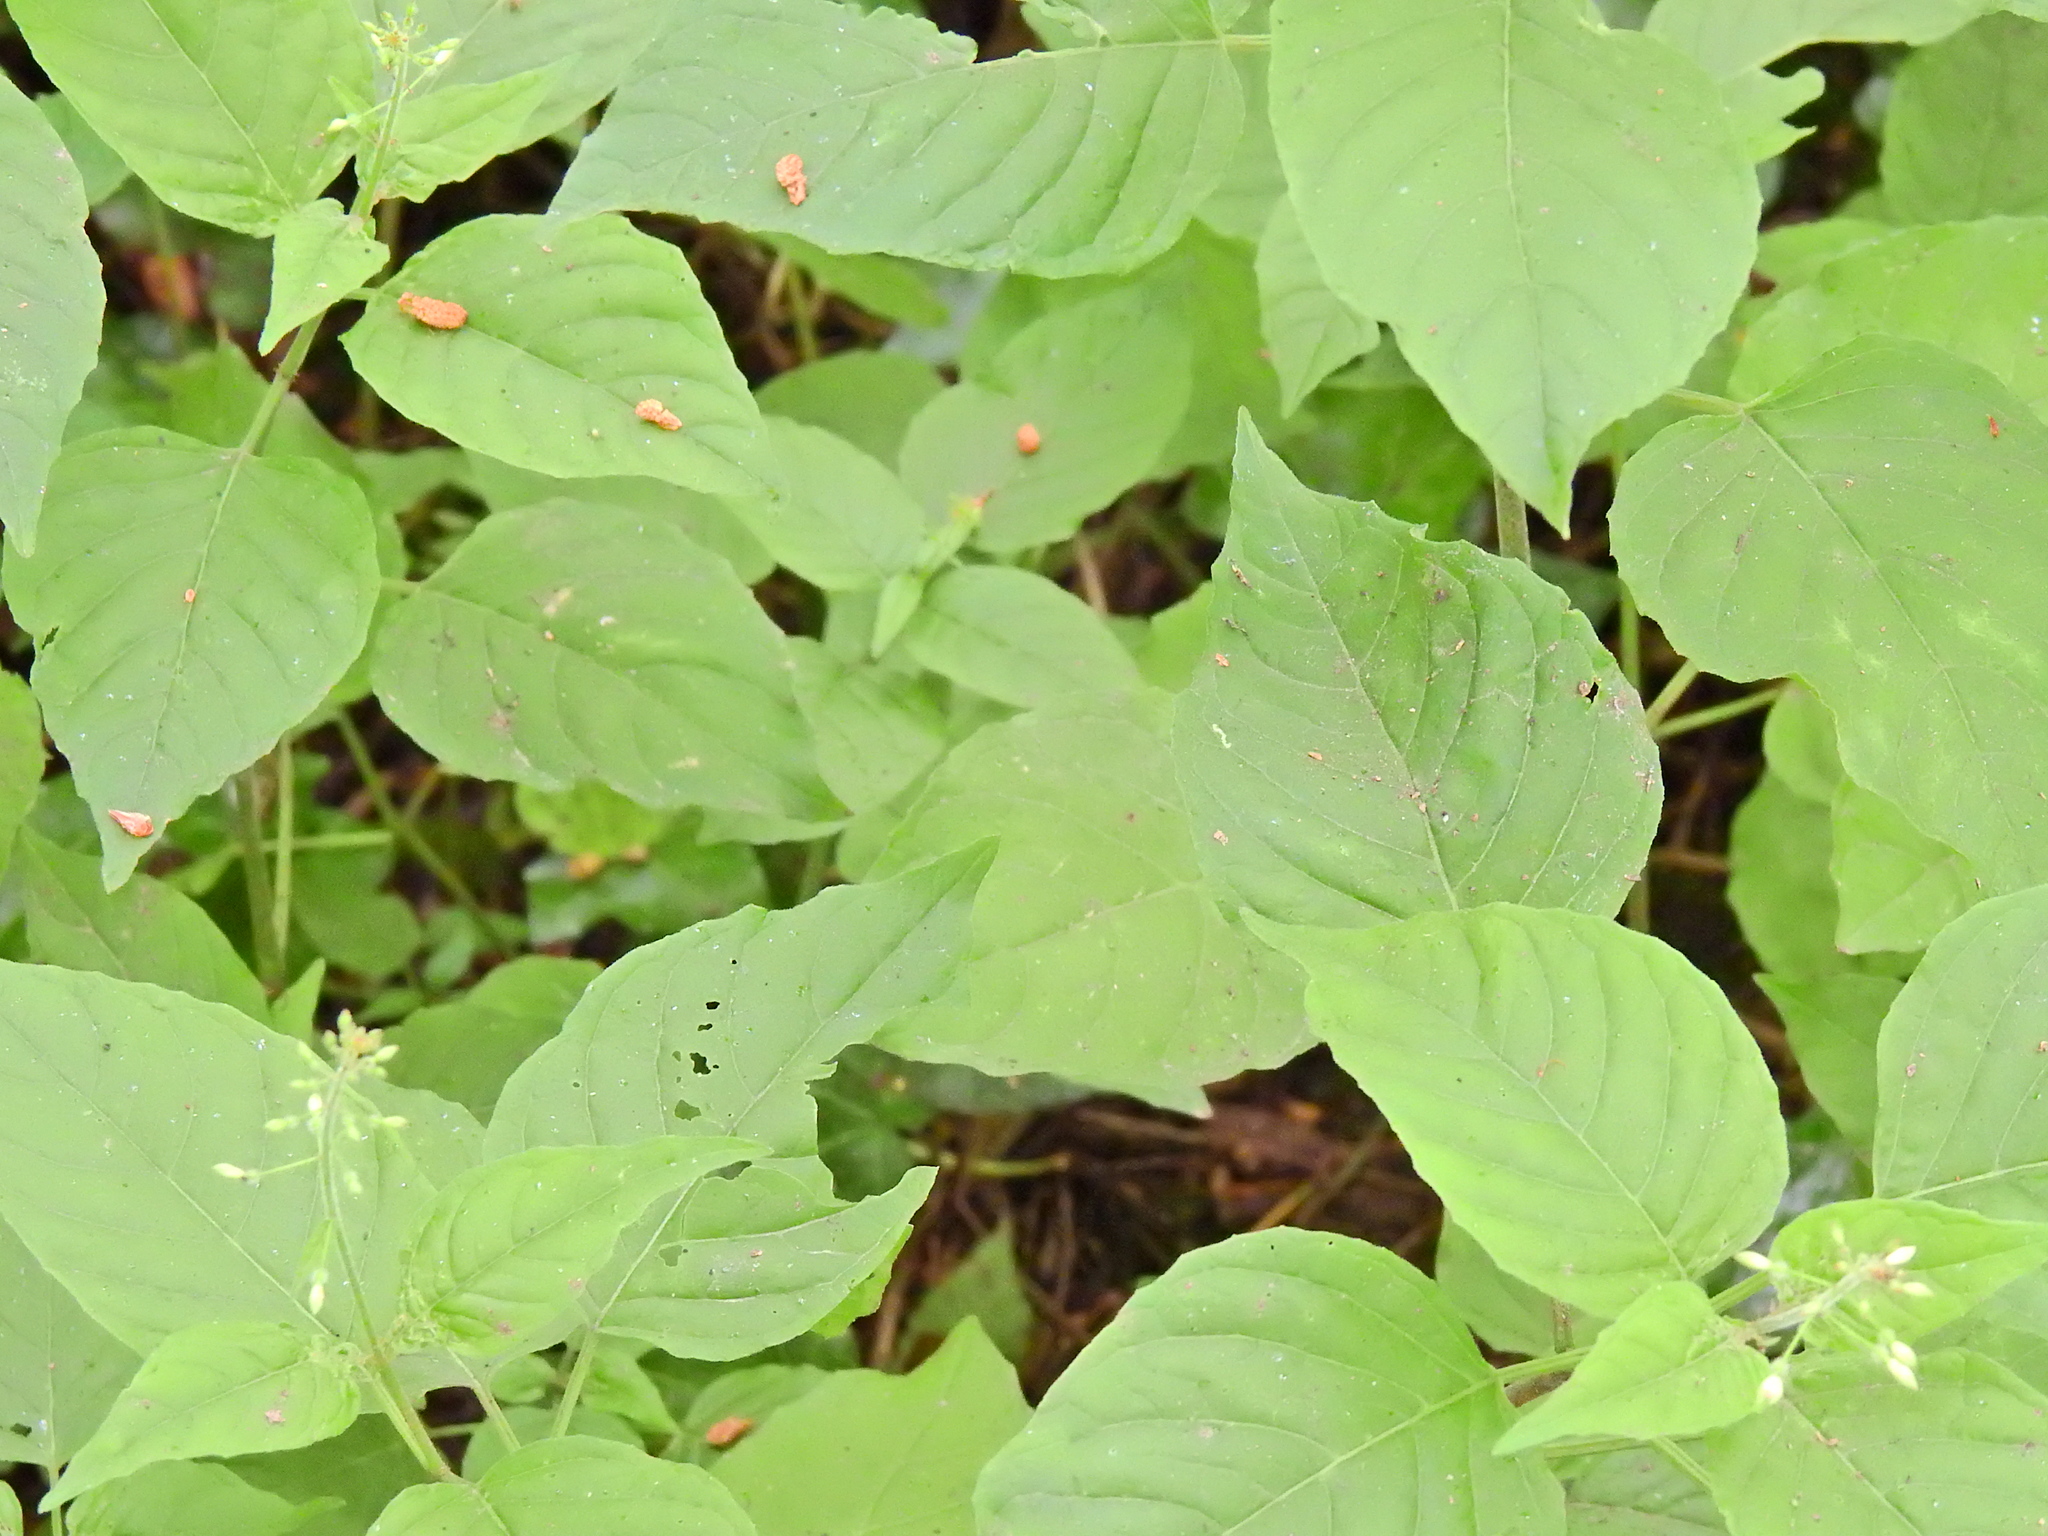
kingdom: Plantae
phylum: Tracheophyta
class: Magnoliopsida
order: Myrtales
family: Onagraceae
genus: Circaea
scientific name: Circaea lutetiana
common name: Enchanter's-nightshade
